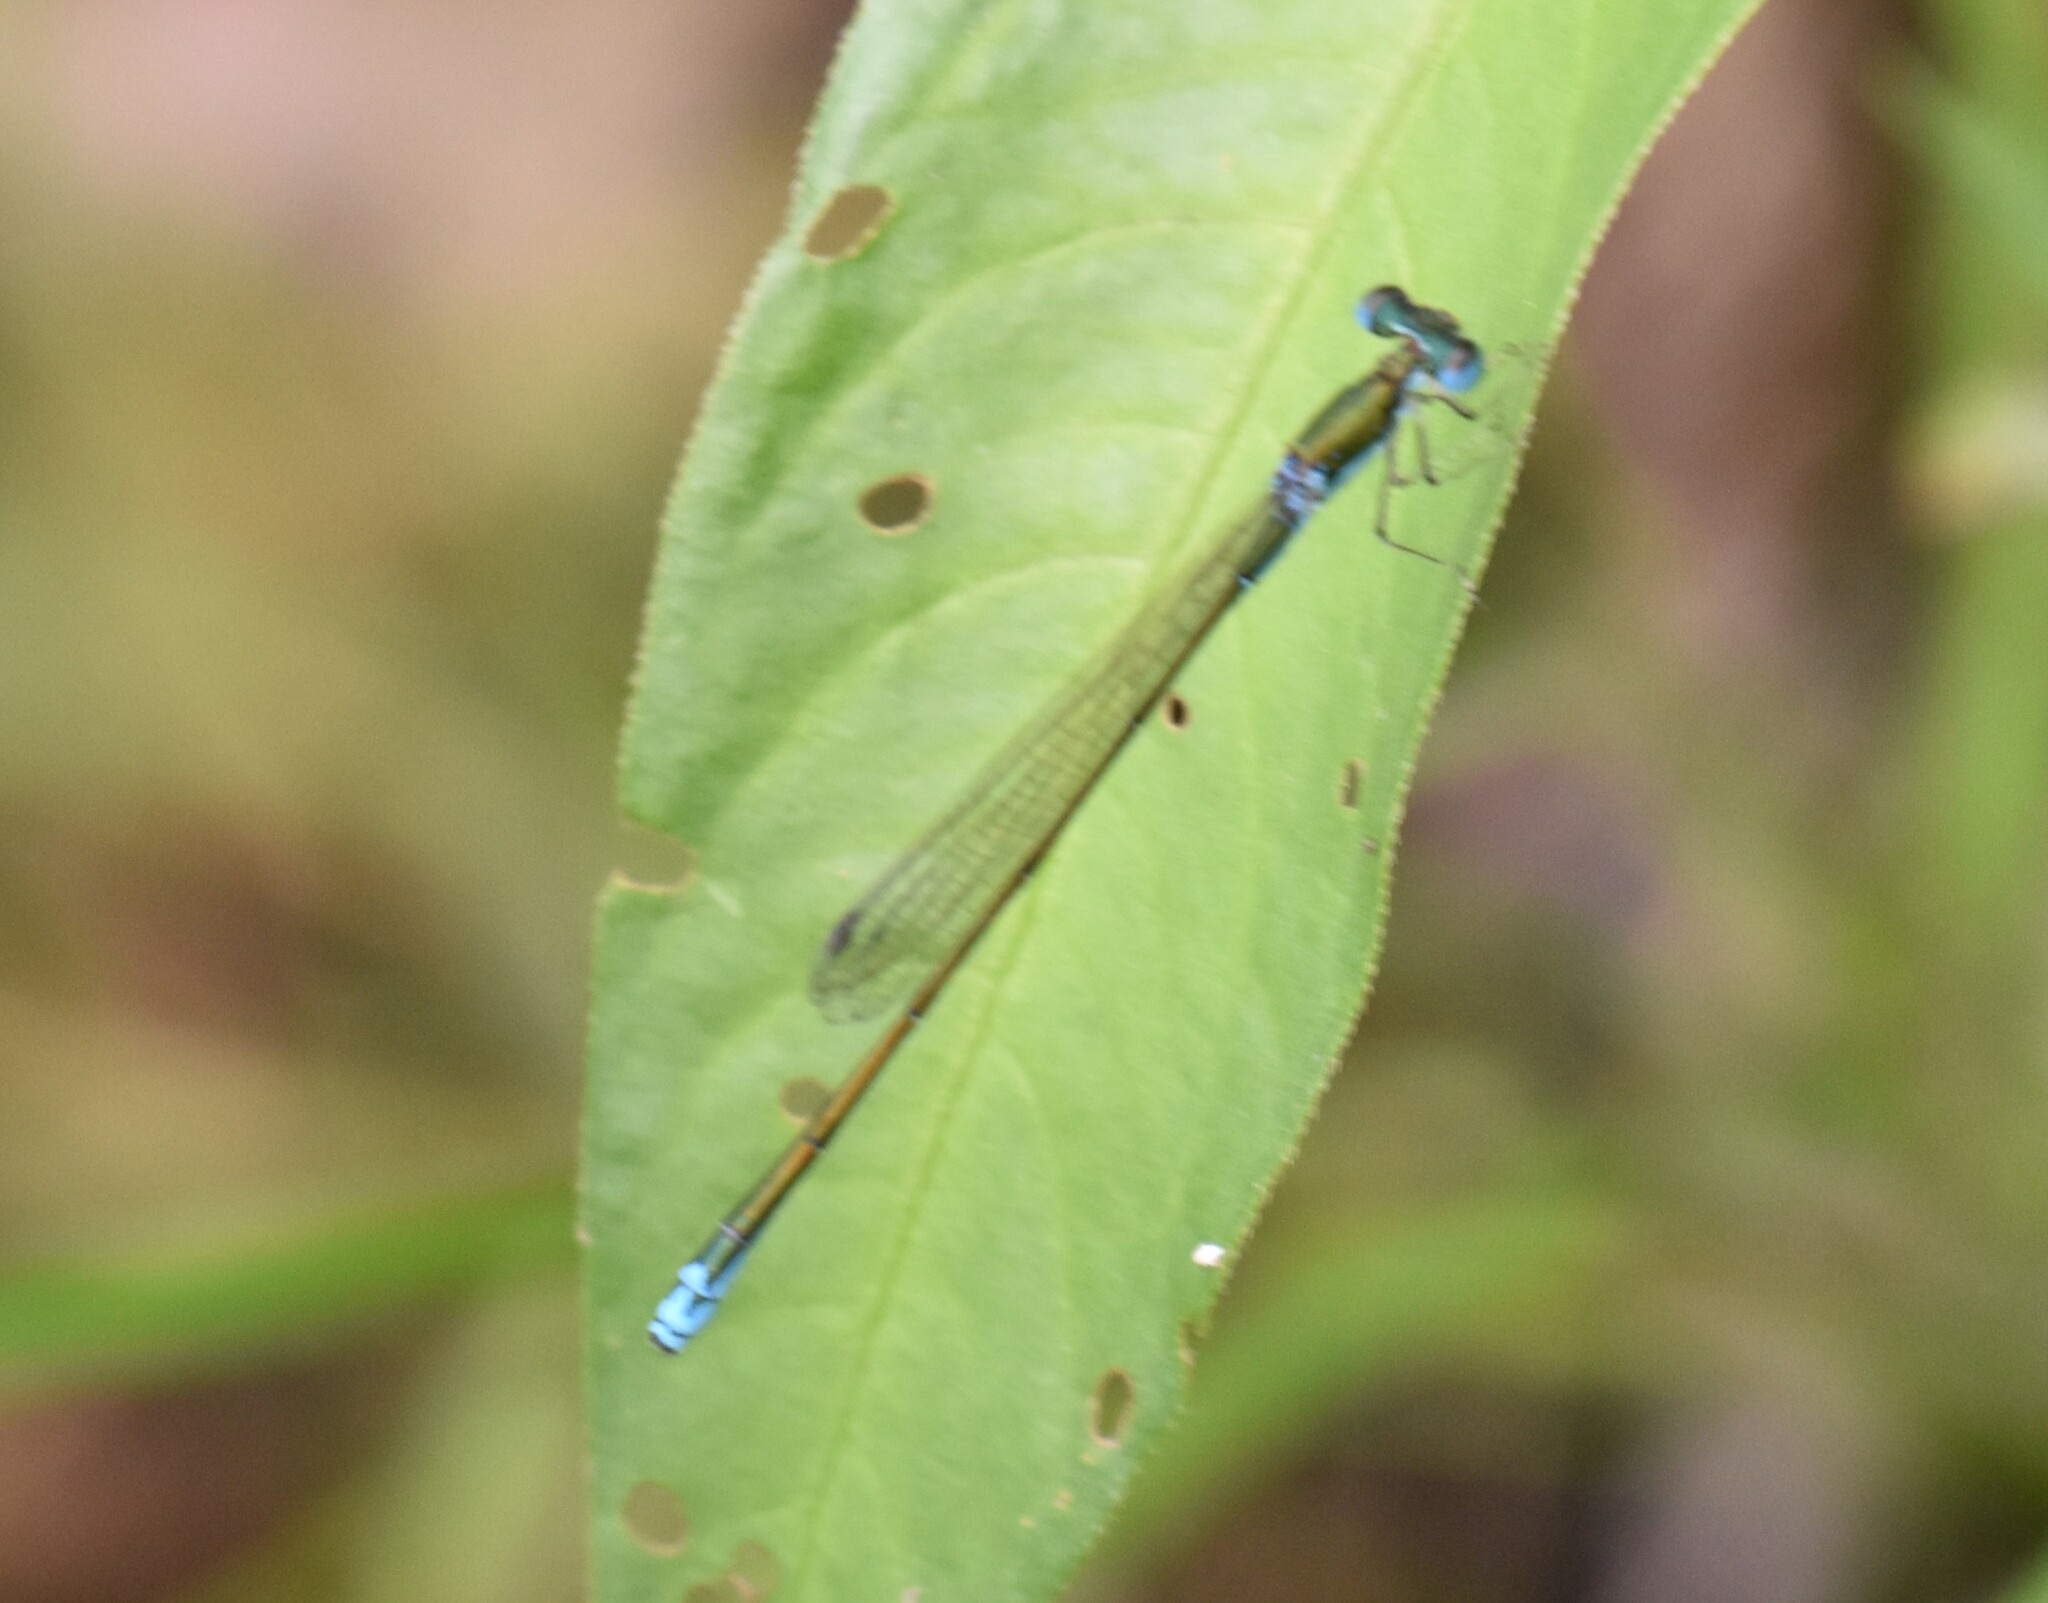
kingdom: Animalia
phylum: Arthropoda
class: Insecta
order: Odonata
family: Coenagrionidae
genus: Nehalennia
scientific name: Nehalennia irene
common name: Sedge sprite
